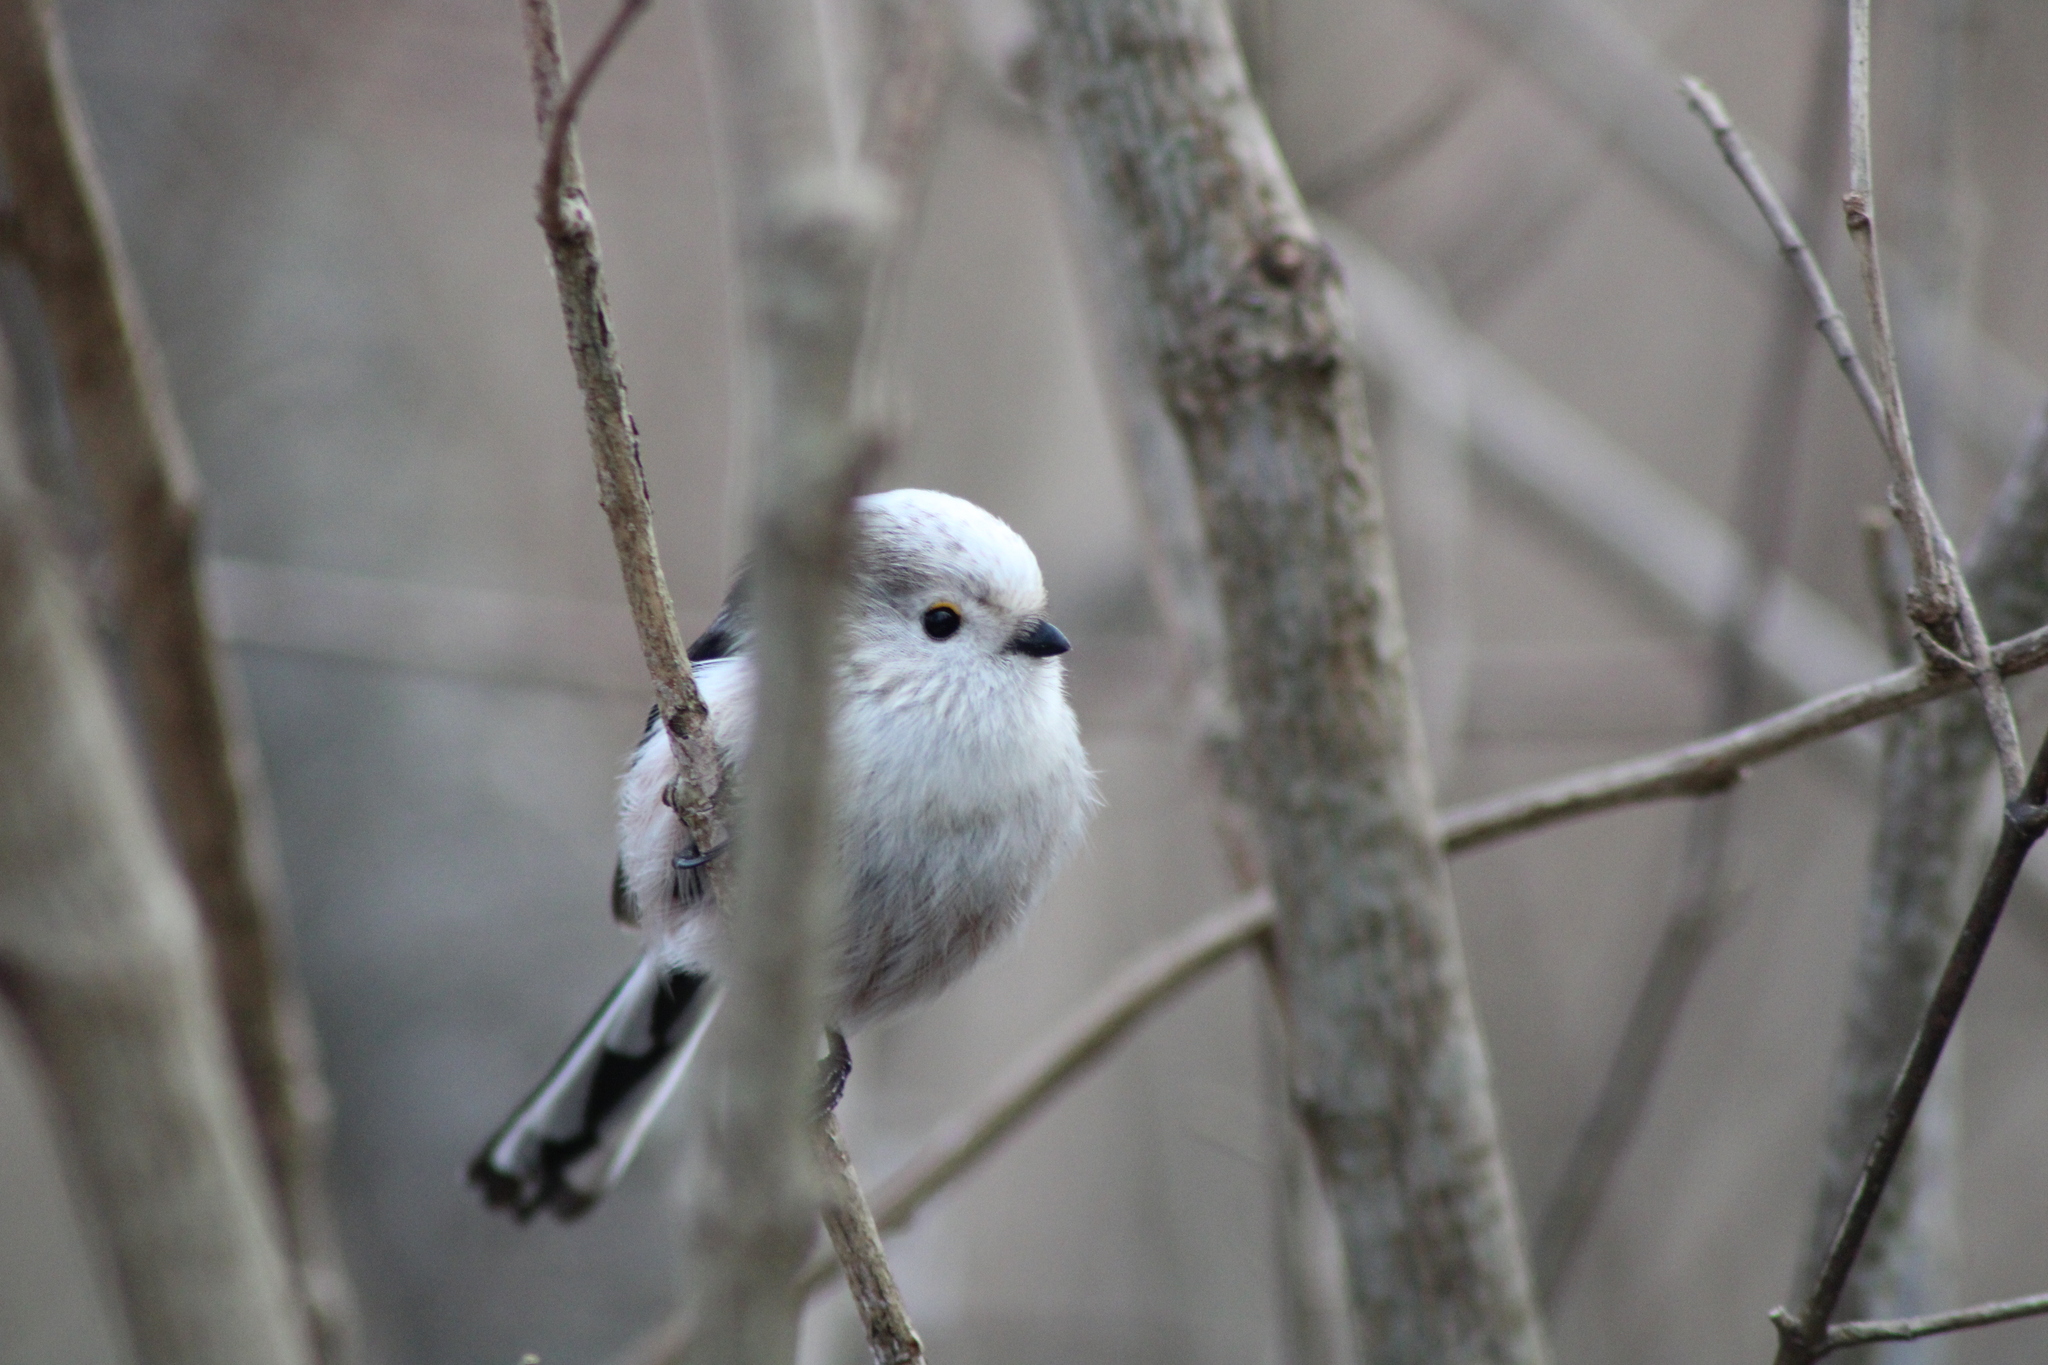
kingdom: Animalia
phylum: Chordata
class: Aves
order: Passeriformes
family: Aegithalidae
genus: Aegithalos
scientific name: Aegithalos caudatus
